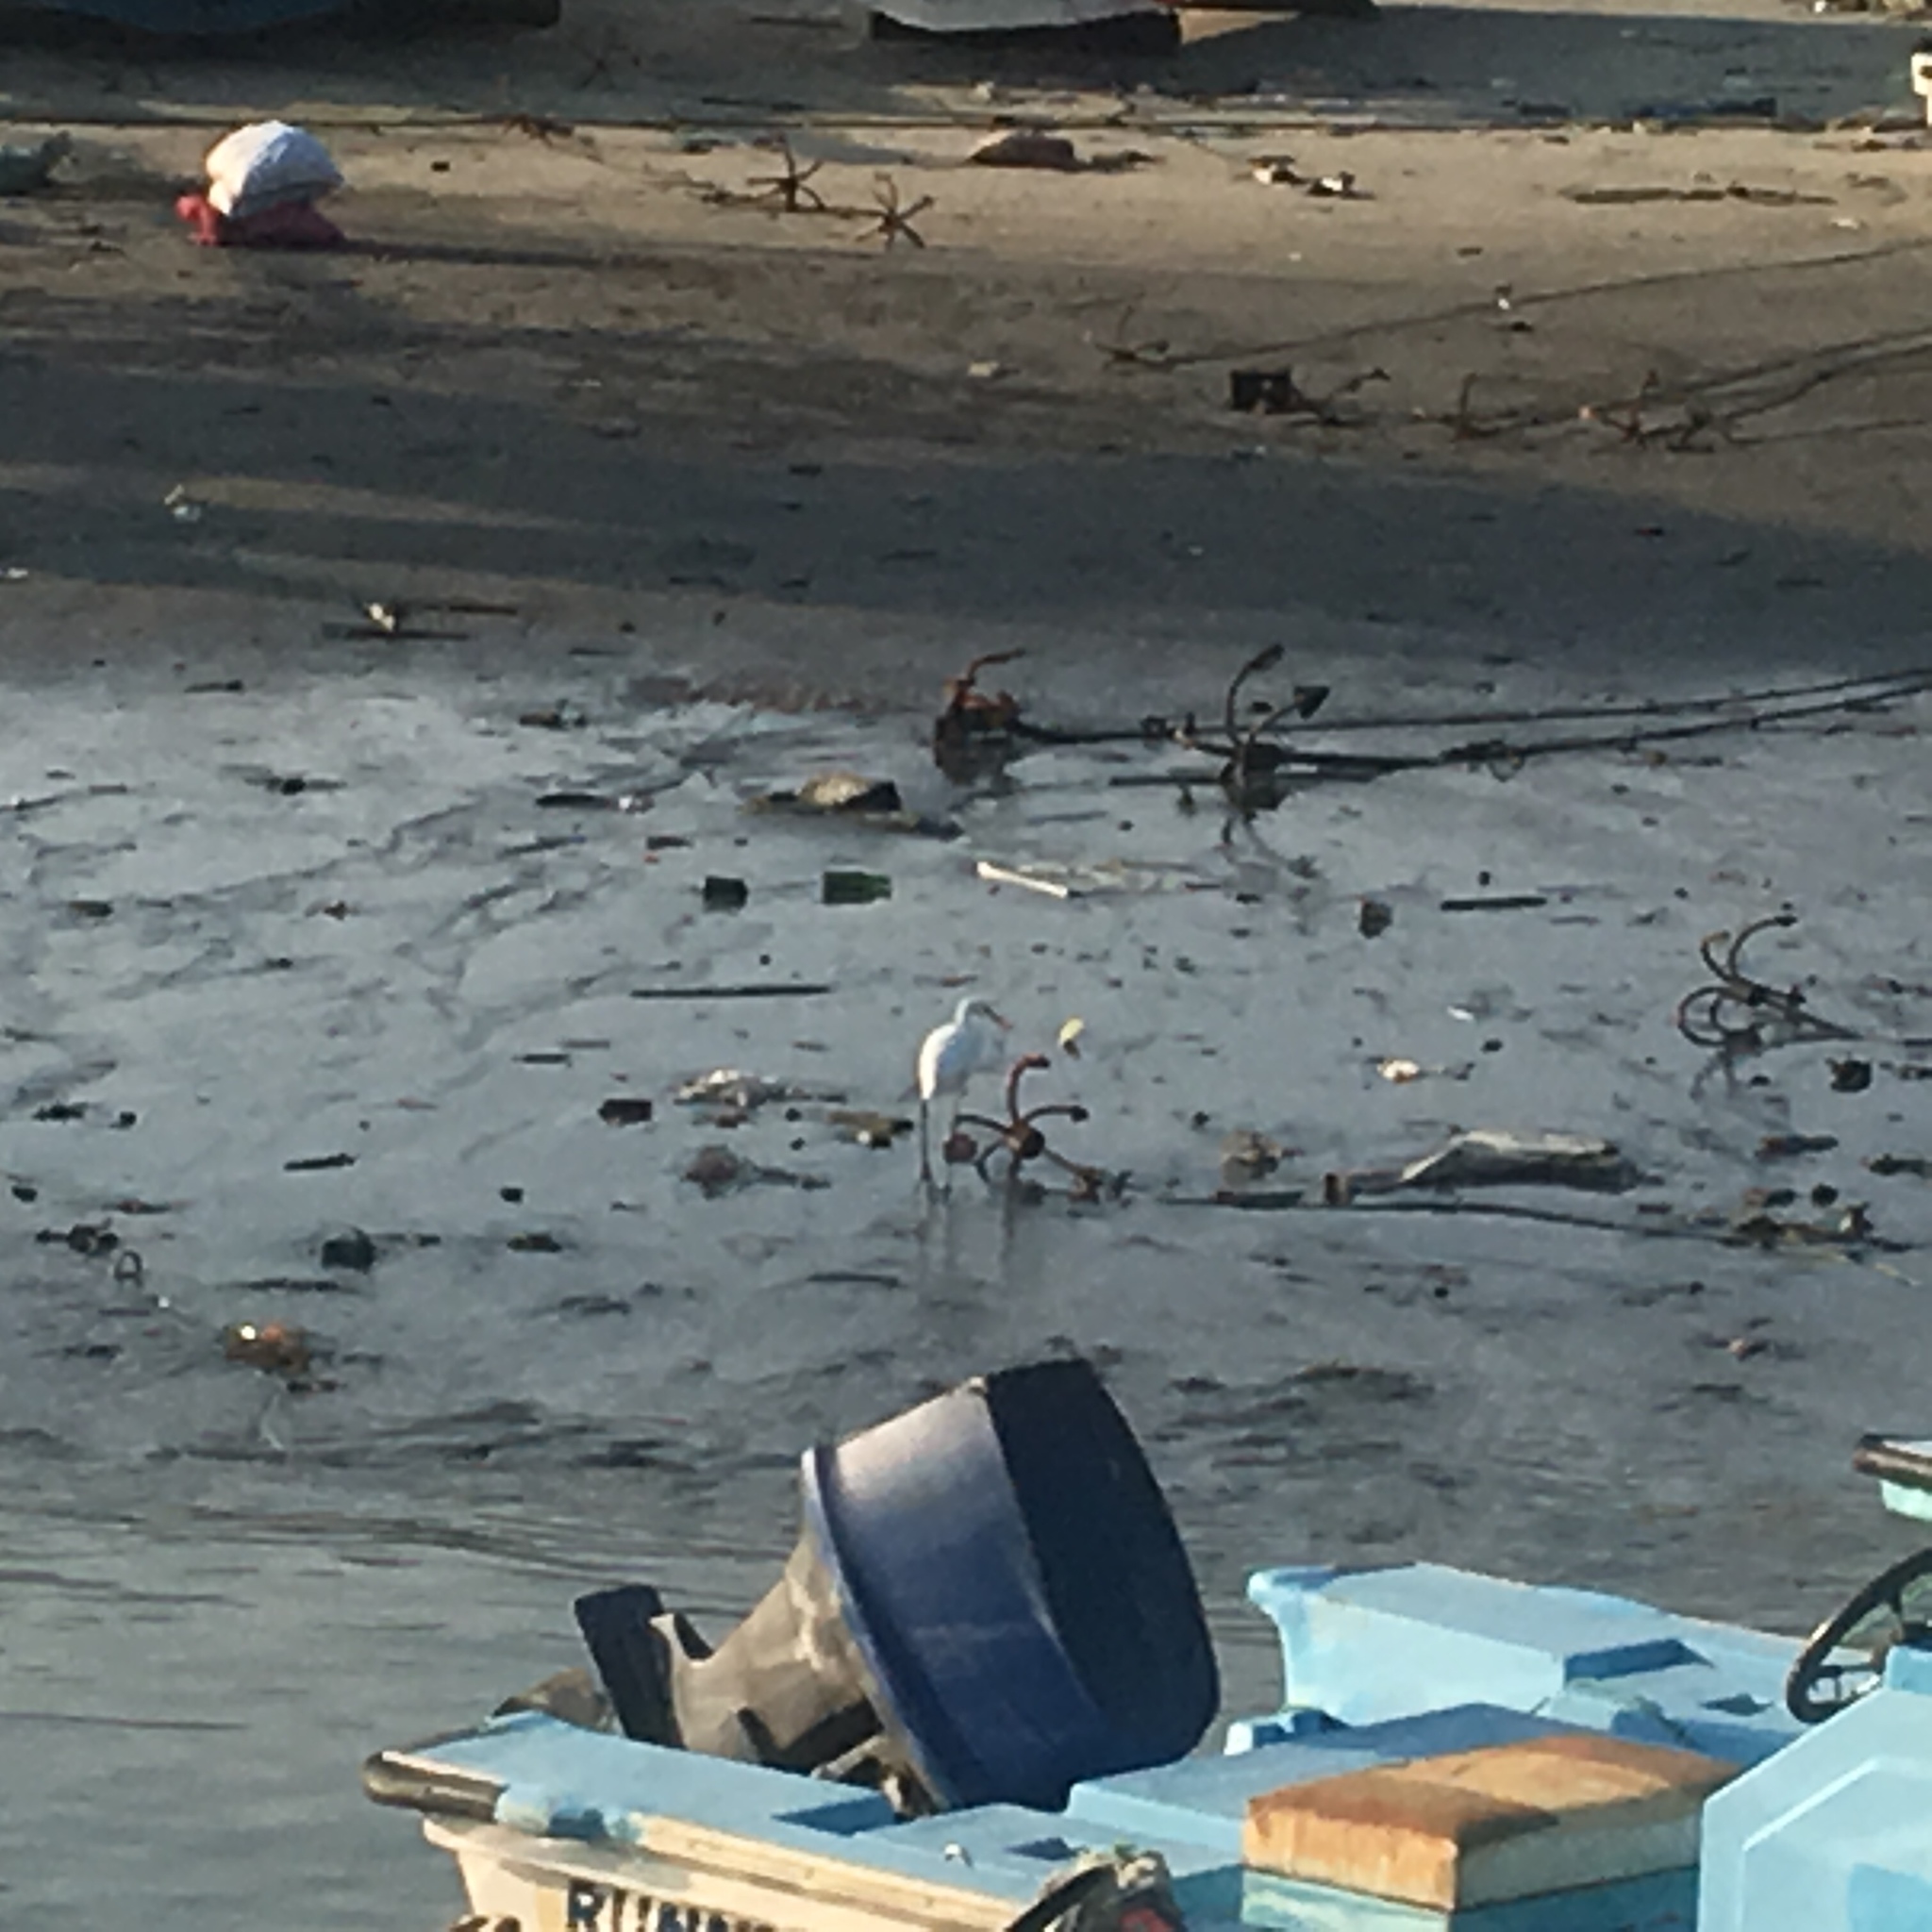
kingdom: Animalia
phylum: Chordata
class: Aves
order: Pelecaniformes
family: Ardeidae
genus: Ardea
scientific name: Ardea alba
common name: Great egret
